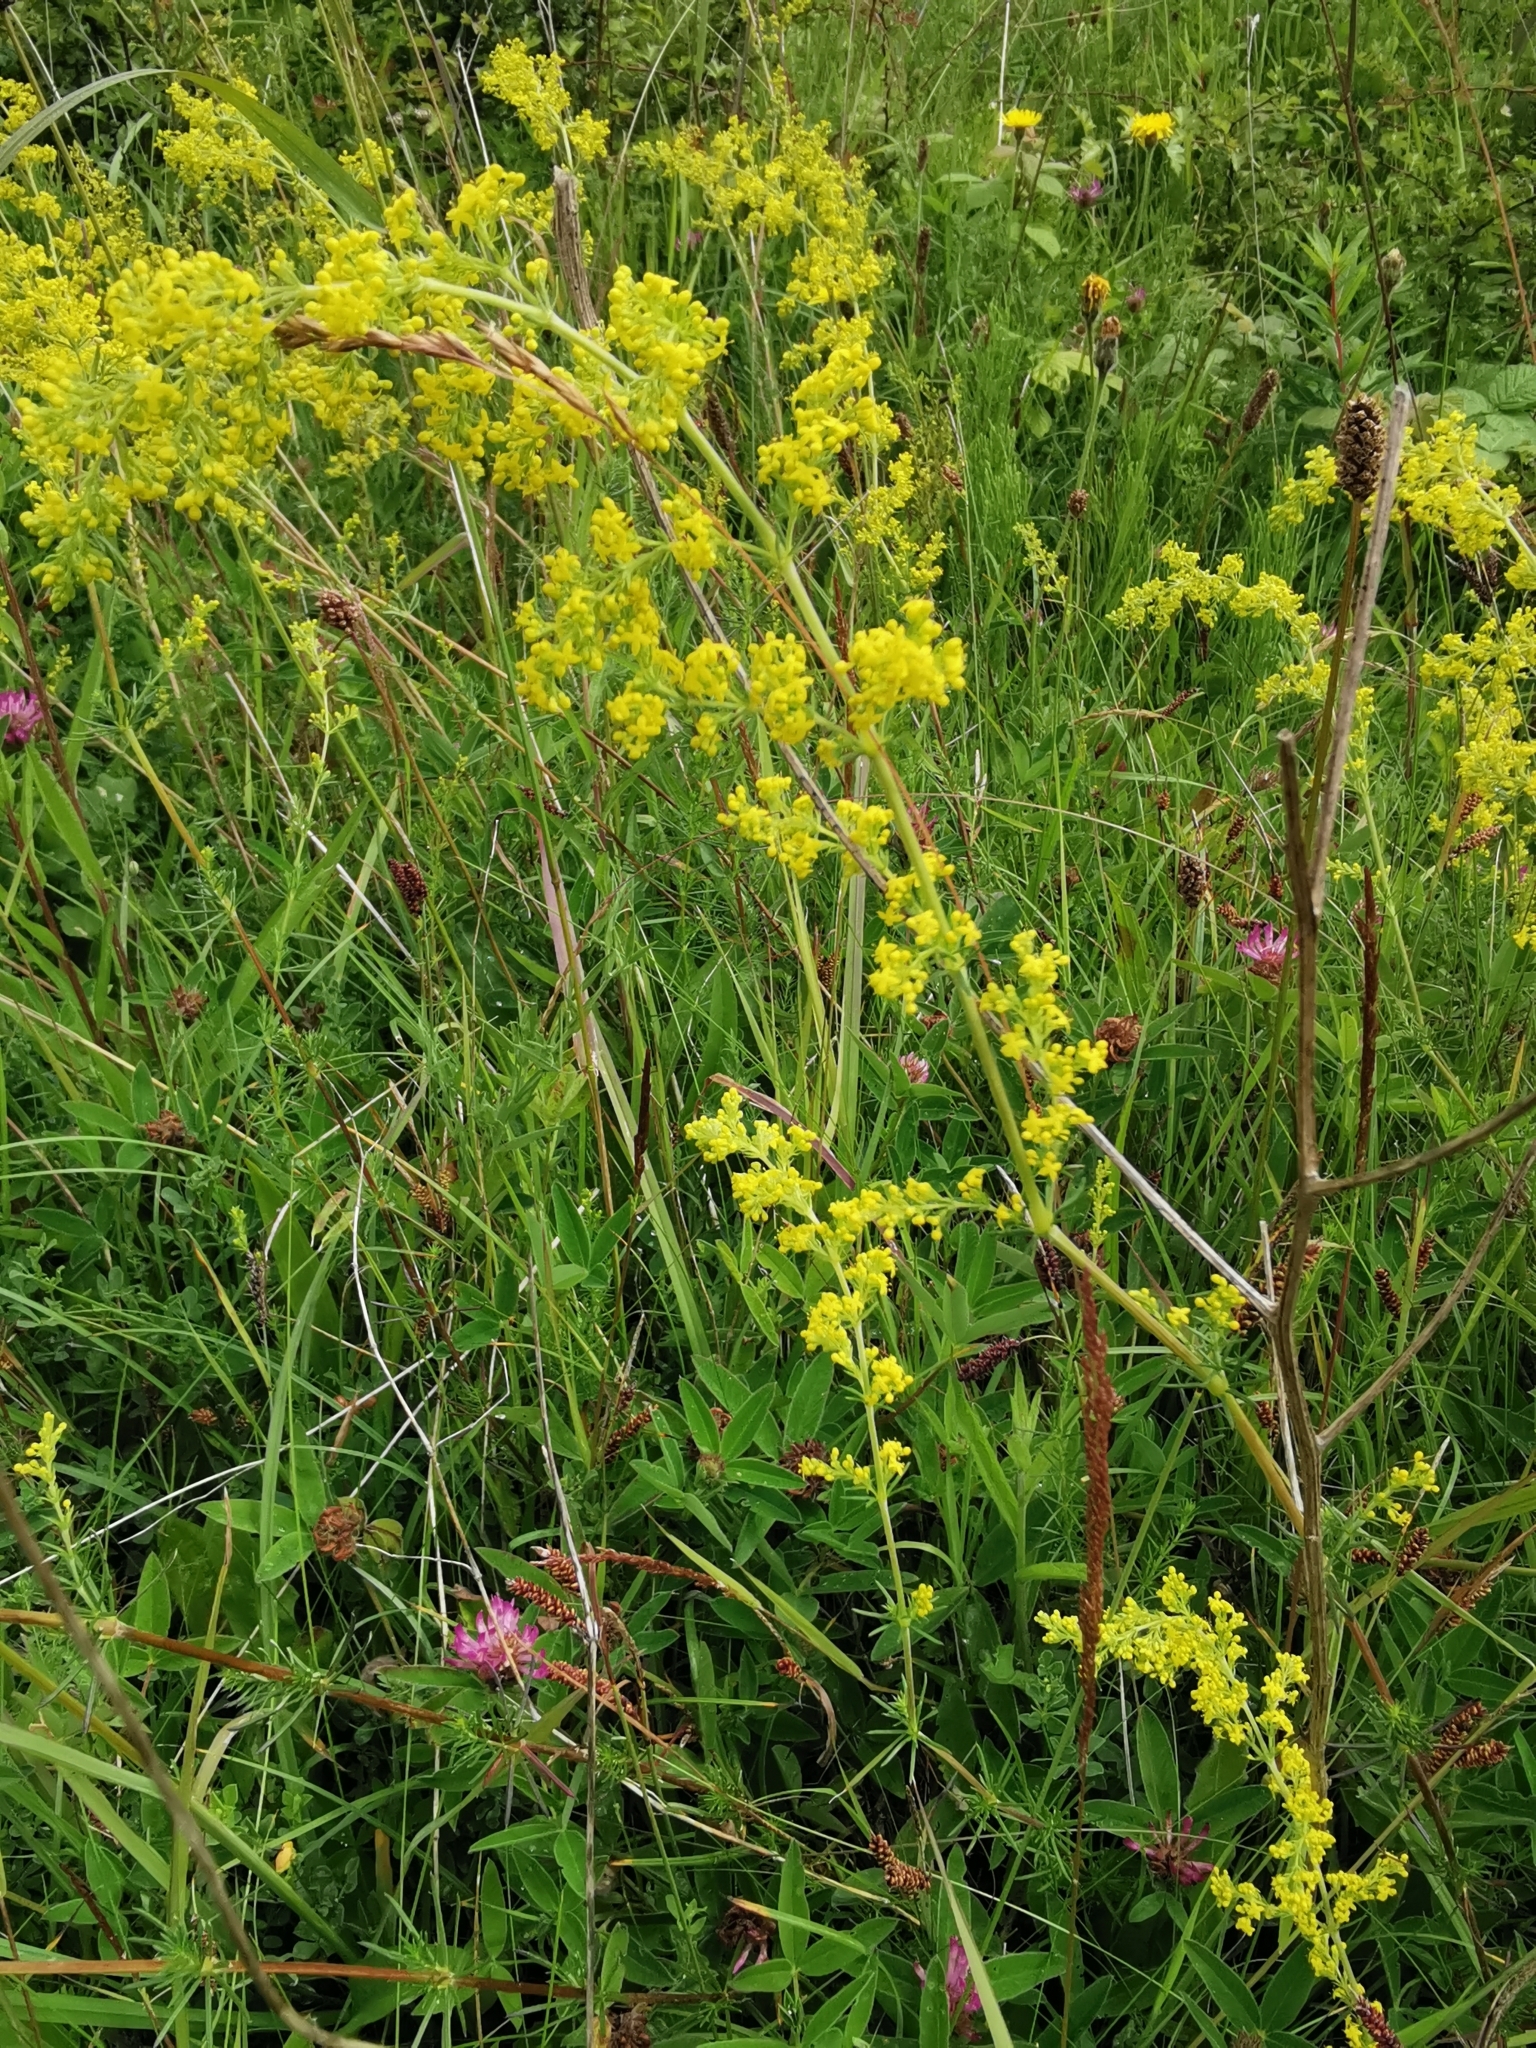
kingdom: Plantae
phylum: Tracheophyta
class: Magnoliopsida
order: Gentianales
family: Rubiaceae
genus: Galium
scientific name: Galium verum
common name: Lady's bedstraw
